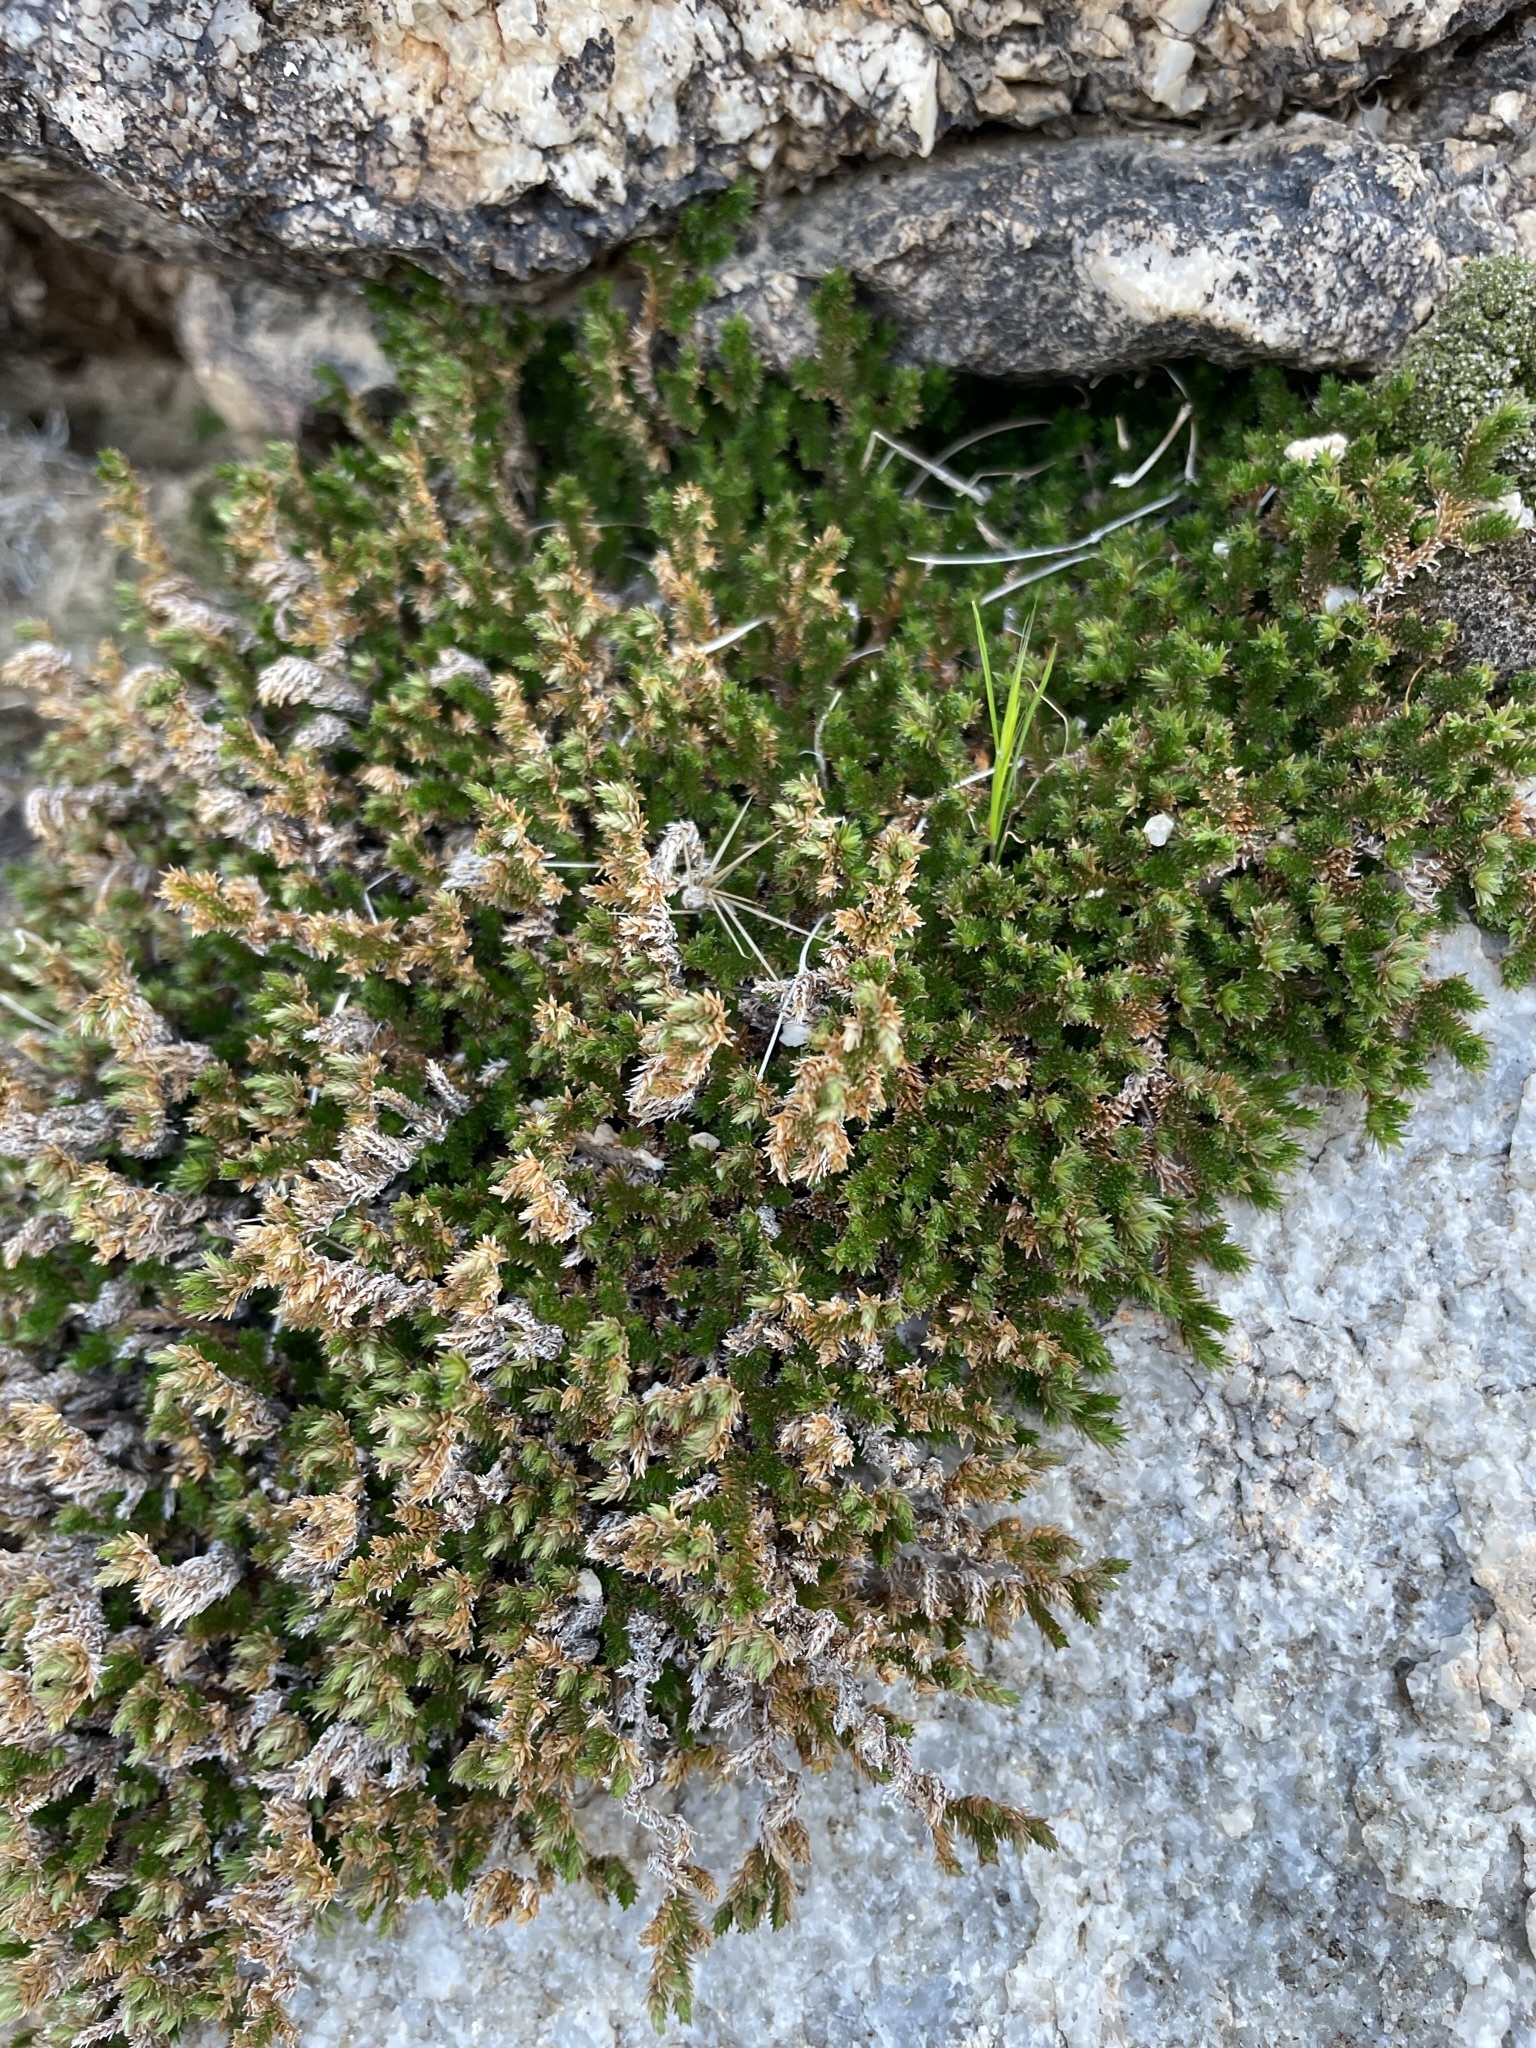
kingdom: Plantae
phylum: Tracheophyta
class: Lycopodiopsida
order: Selaginellales
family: Selaginellaceae
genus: Selaginella
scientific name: Selaginella eremophila
